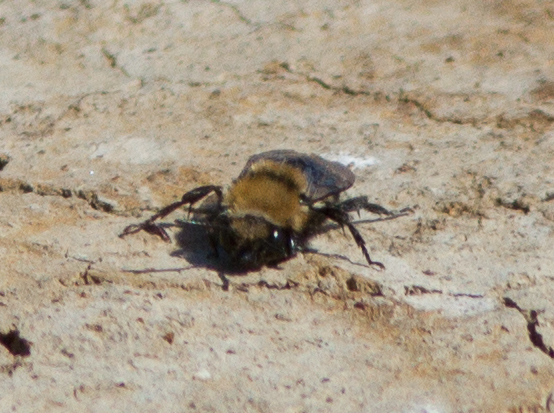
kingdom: Animalia
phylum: Arthropoda
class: Insecta
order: Hymenoptera
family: Apidae
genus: Melecta
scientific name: Melecta separata
